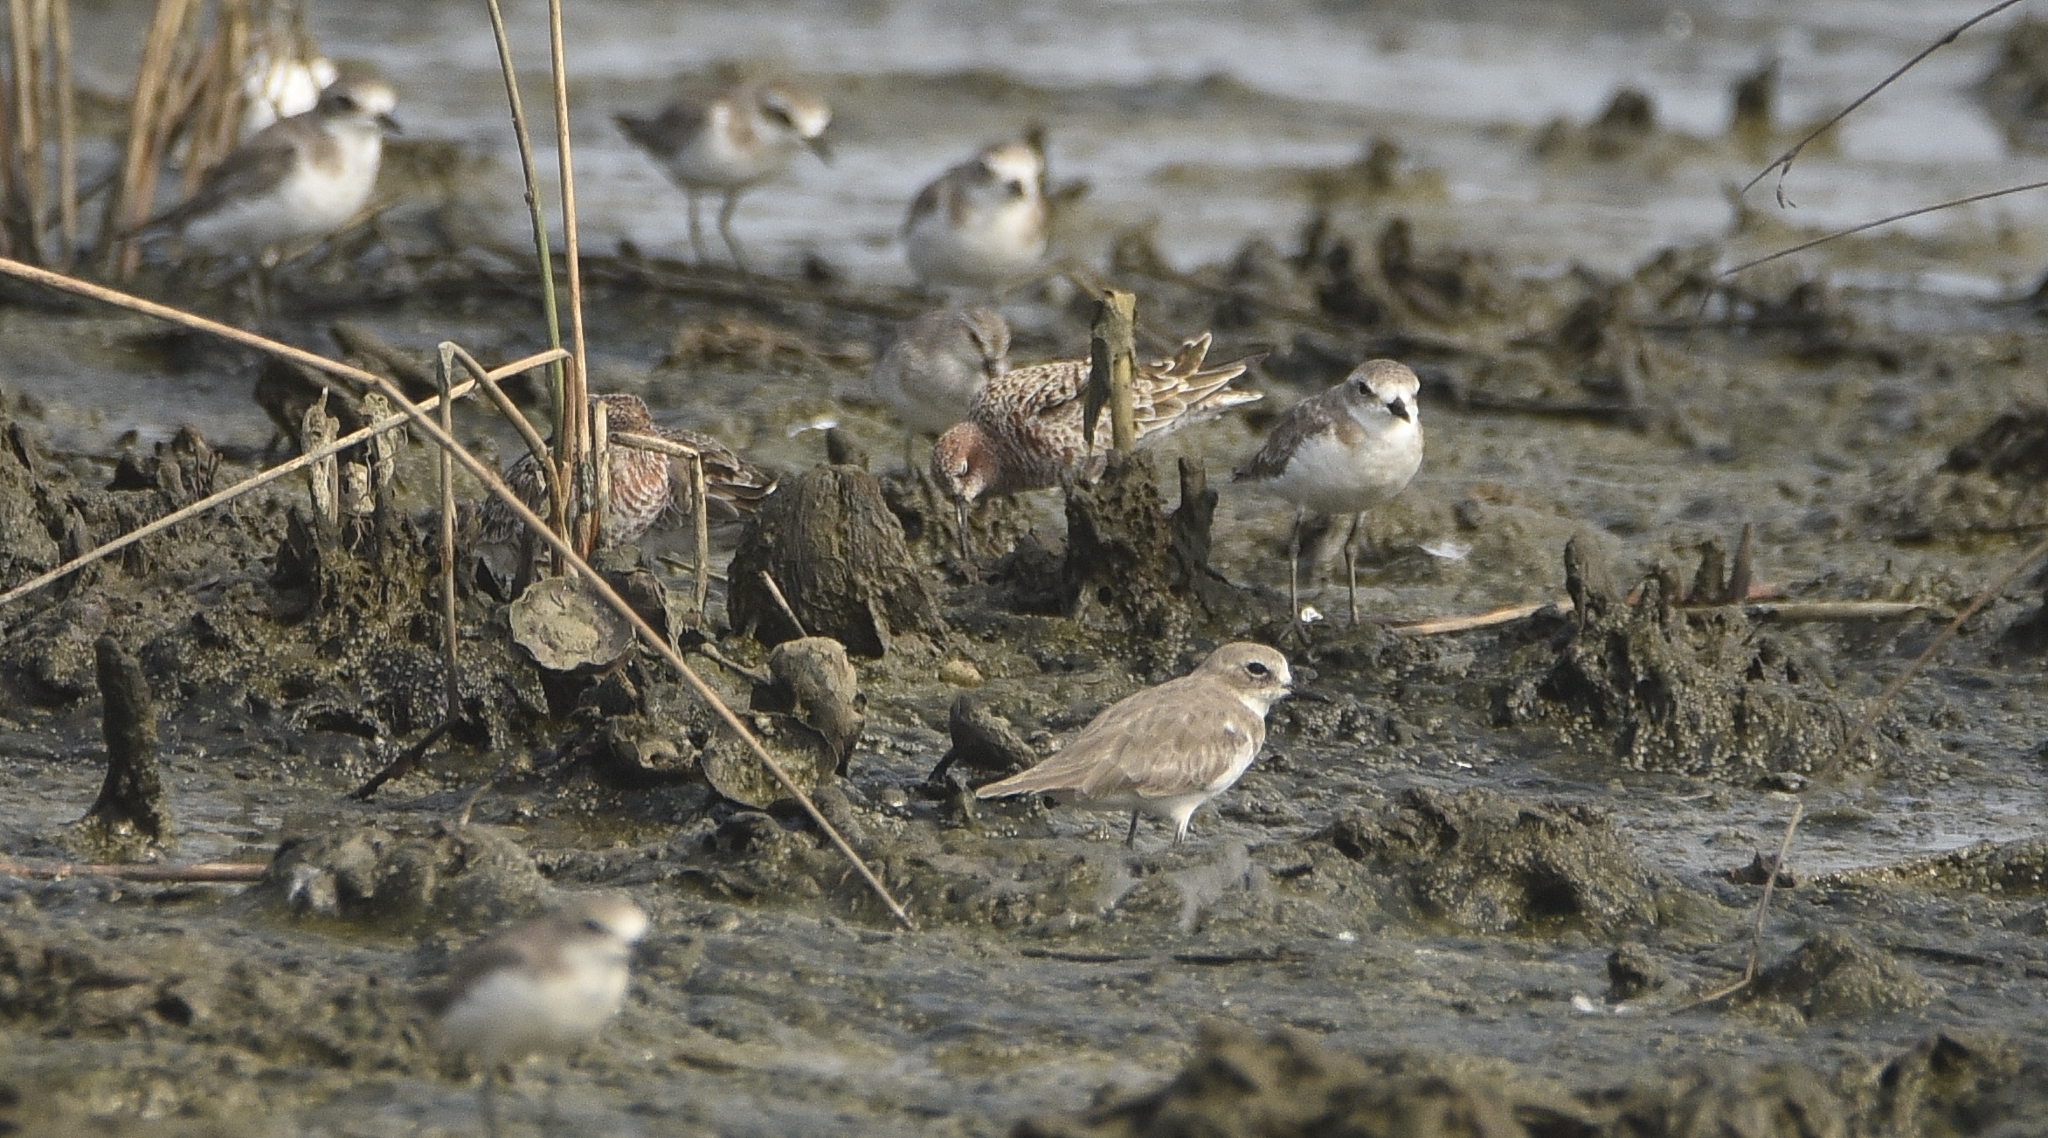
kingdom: Animalia
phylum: Chordata
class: Aves
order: Charadriiformes
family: Charadriidae
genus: Anarhynchus
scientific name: Anarhynchus
